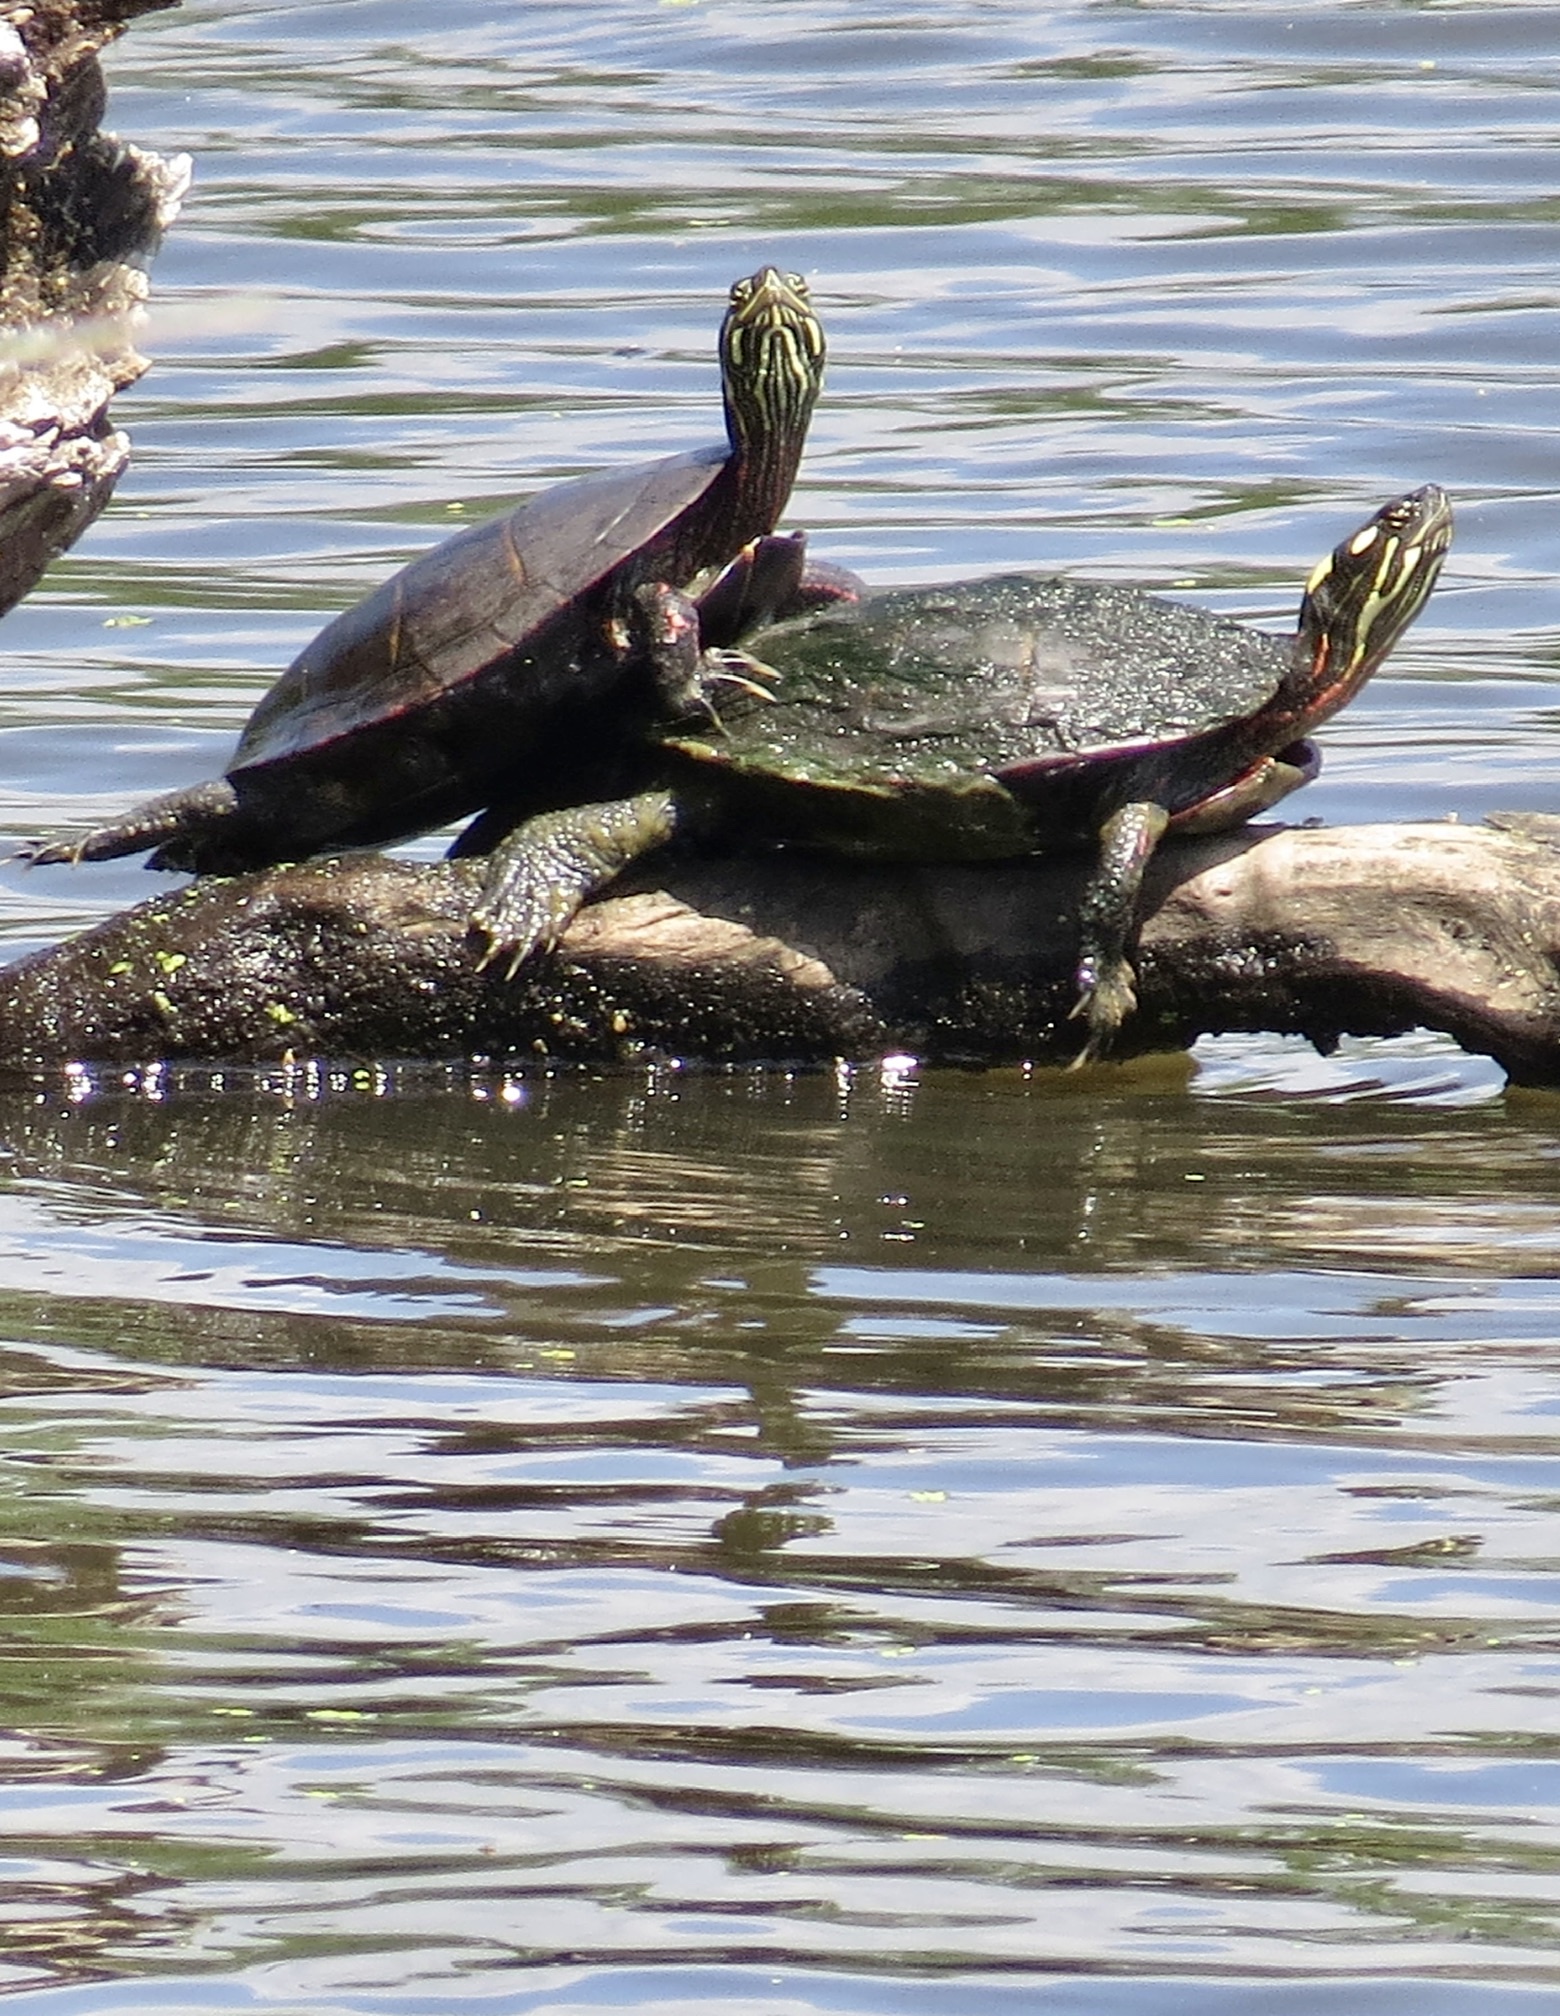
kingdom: Animalia
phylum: Chordata
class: Testudines
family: Emydidae
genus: Chrysemys
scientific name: Chrysemys picta
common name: Painted turtle
